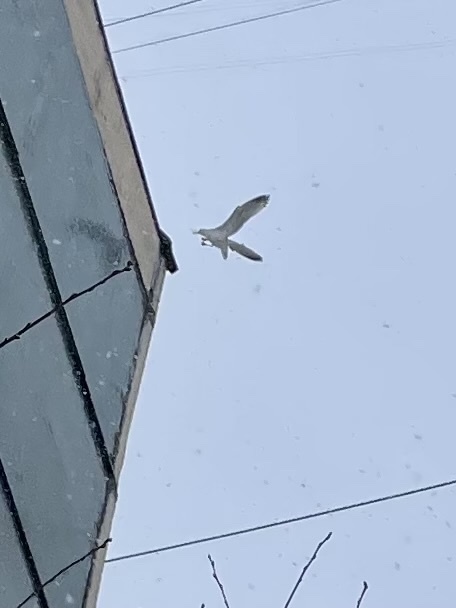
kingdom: Animalia
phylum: Chordata
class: Aves
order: Charadriiformes
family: Laridae
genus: Larus
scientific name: Larus argentatus
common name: Herring gull
